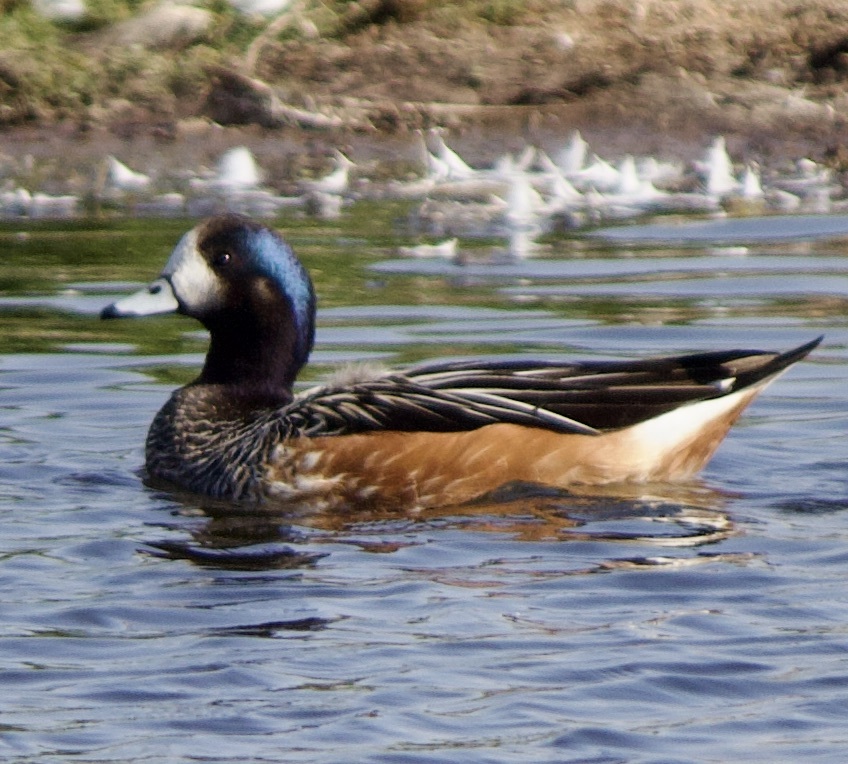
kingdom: Animalia
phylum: Chordata
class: Aves
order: Anseriformes
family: Anatidae
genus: Mareca
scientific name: Mareca sibilatrix
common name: Chiloe wigeon
